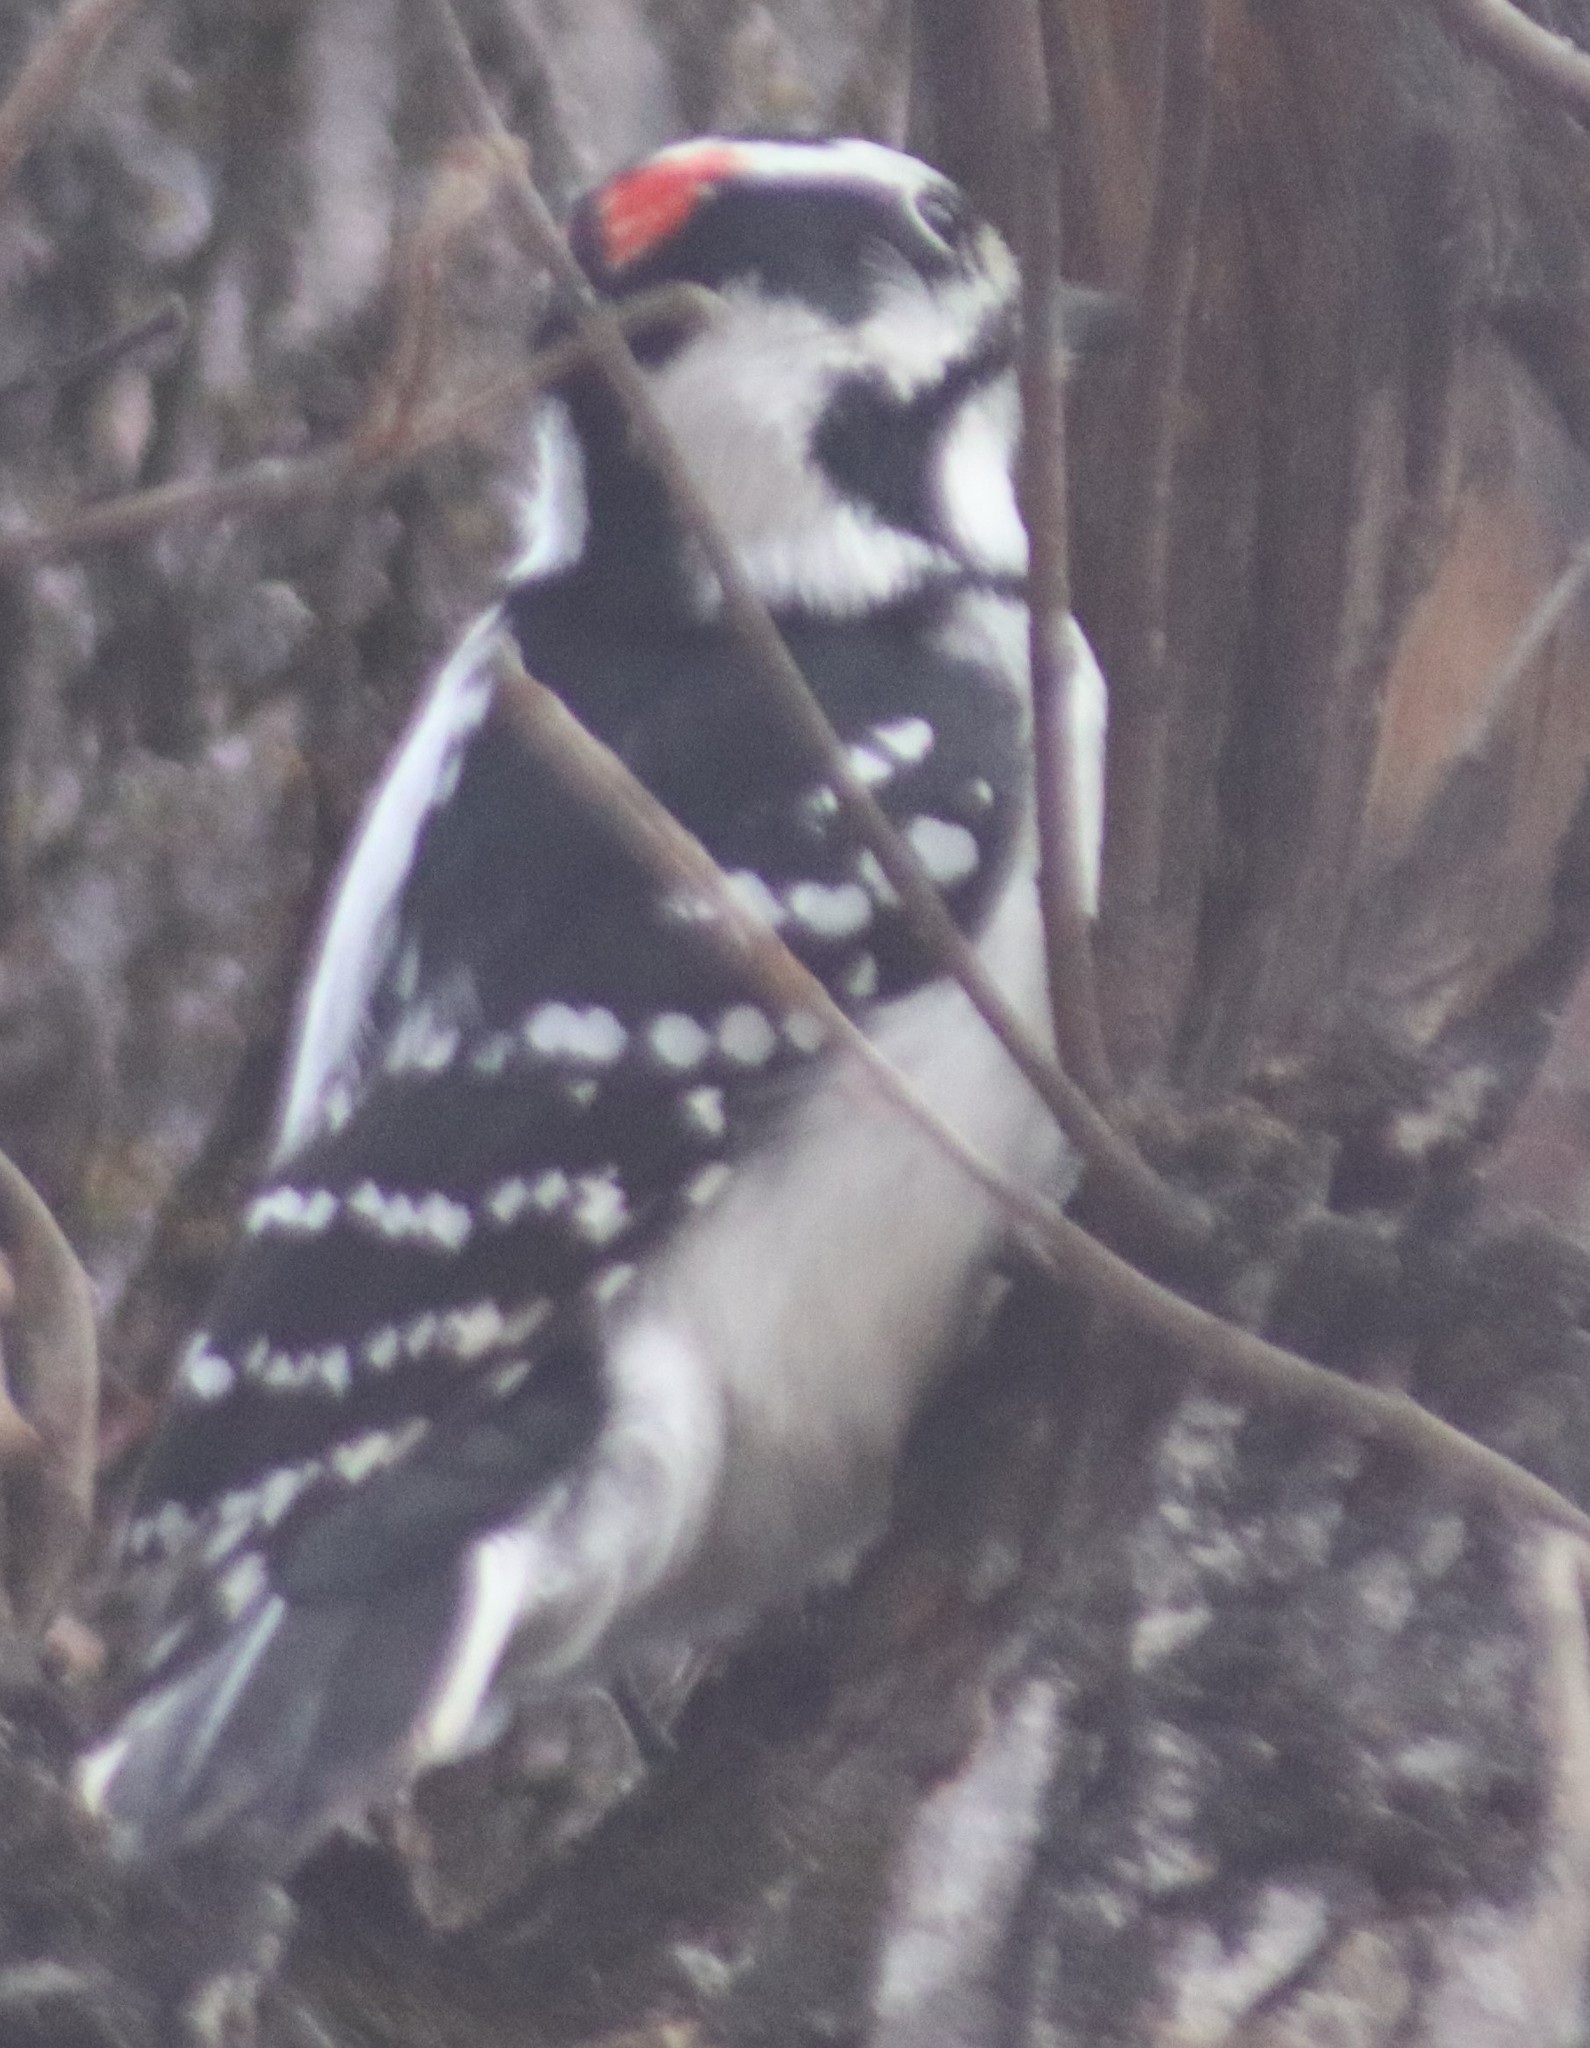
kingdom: Animalia
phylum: Chordata
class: Aves
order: Piciformes
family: Picidae
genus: Leuconotopicus
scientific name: Leuconotopicus villosus
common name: Hairy woodpecker
